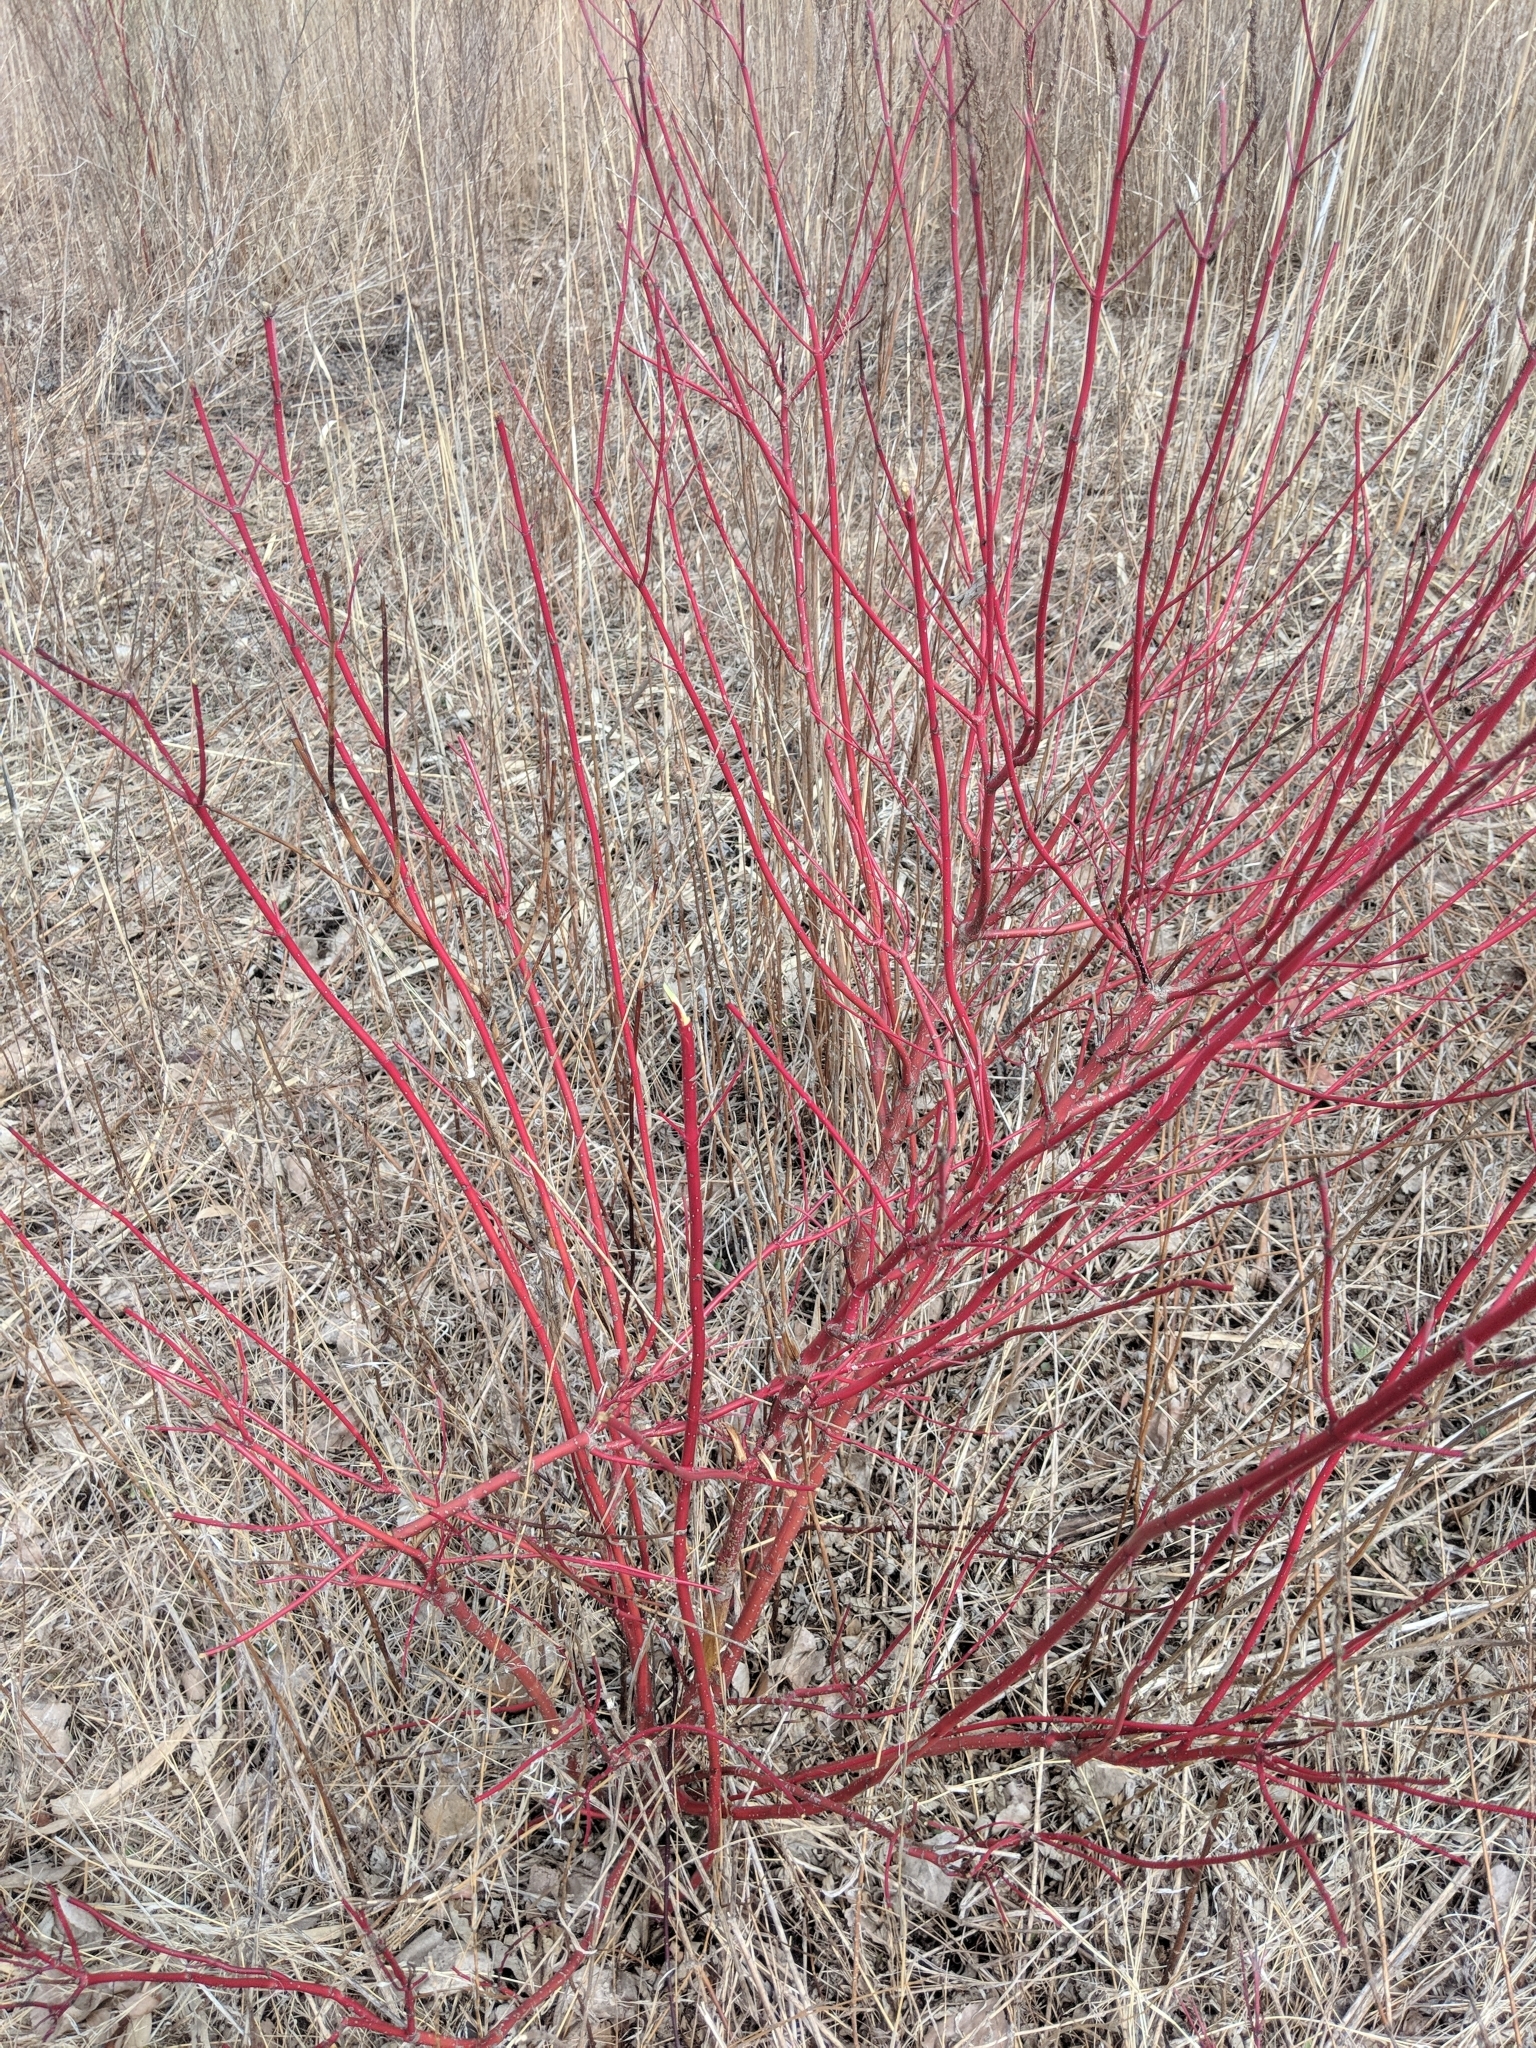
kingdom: Plantae
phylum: Tracheophyta
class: Magnoliopsida
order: Cornales
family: Cornaceae
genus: Cornus
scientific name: Cornus sericea
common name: Red-osier dogwood
